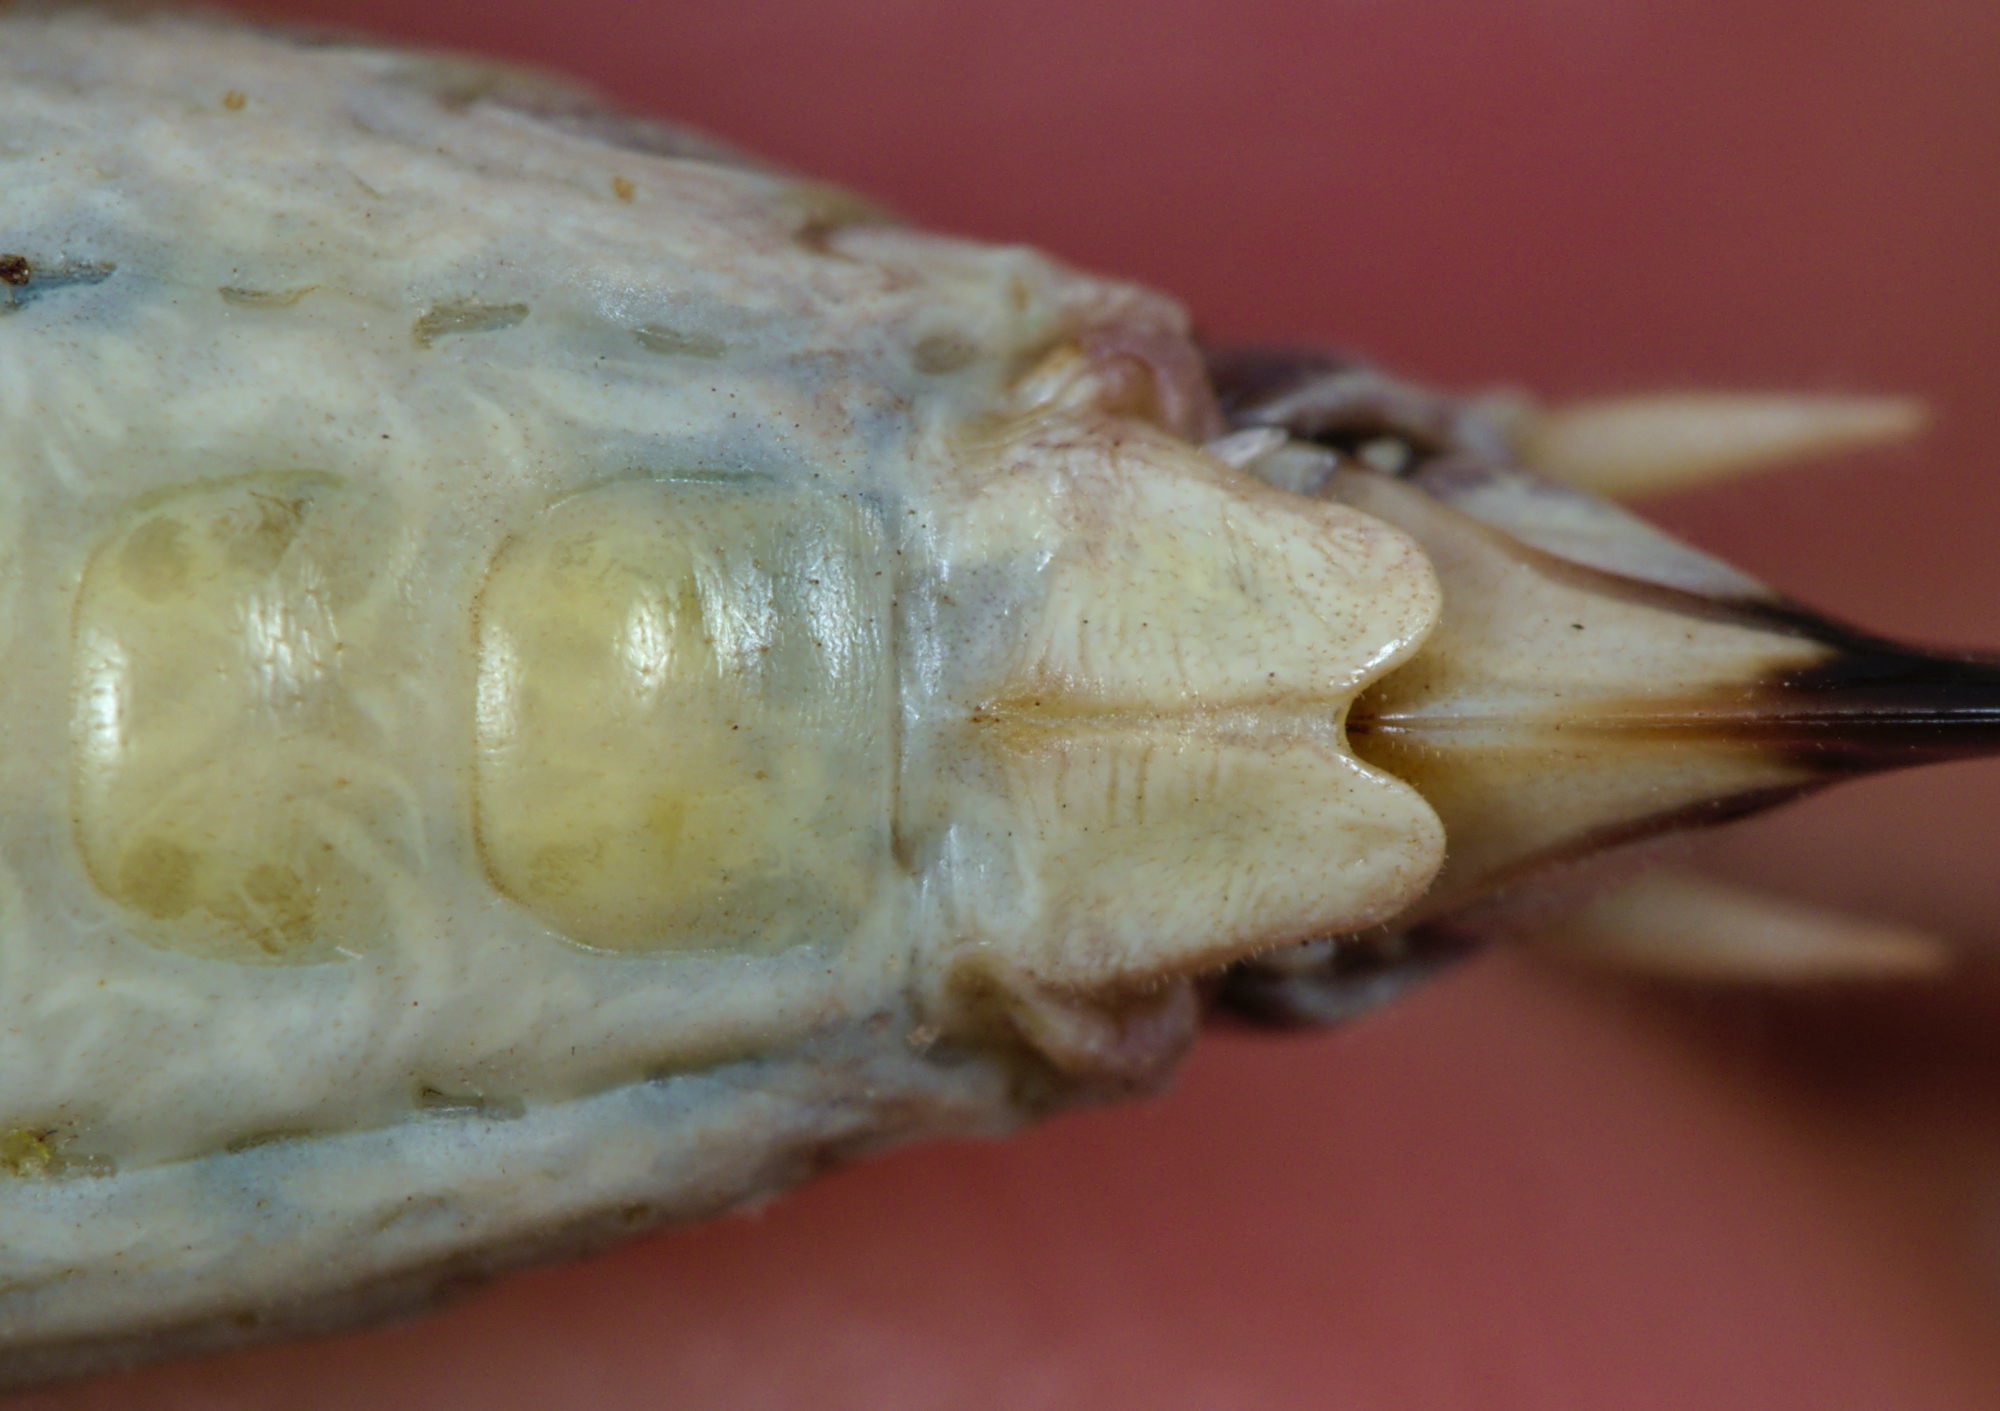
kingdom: Animalia
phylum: Arthropoda
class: Insecta
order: Orthoptera
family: Tettigoniidae
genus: Platycleis
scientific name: Platycleis albopunctata
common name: Grey bush-cricket
